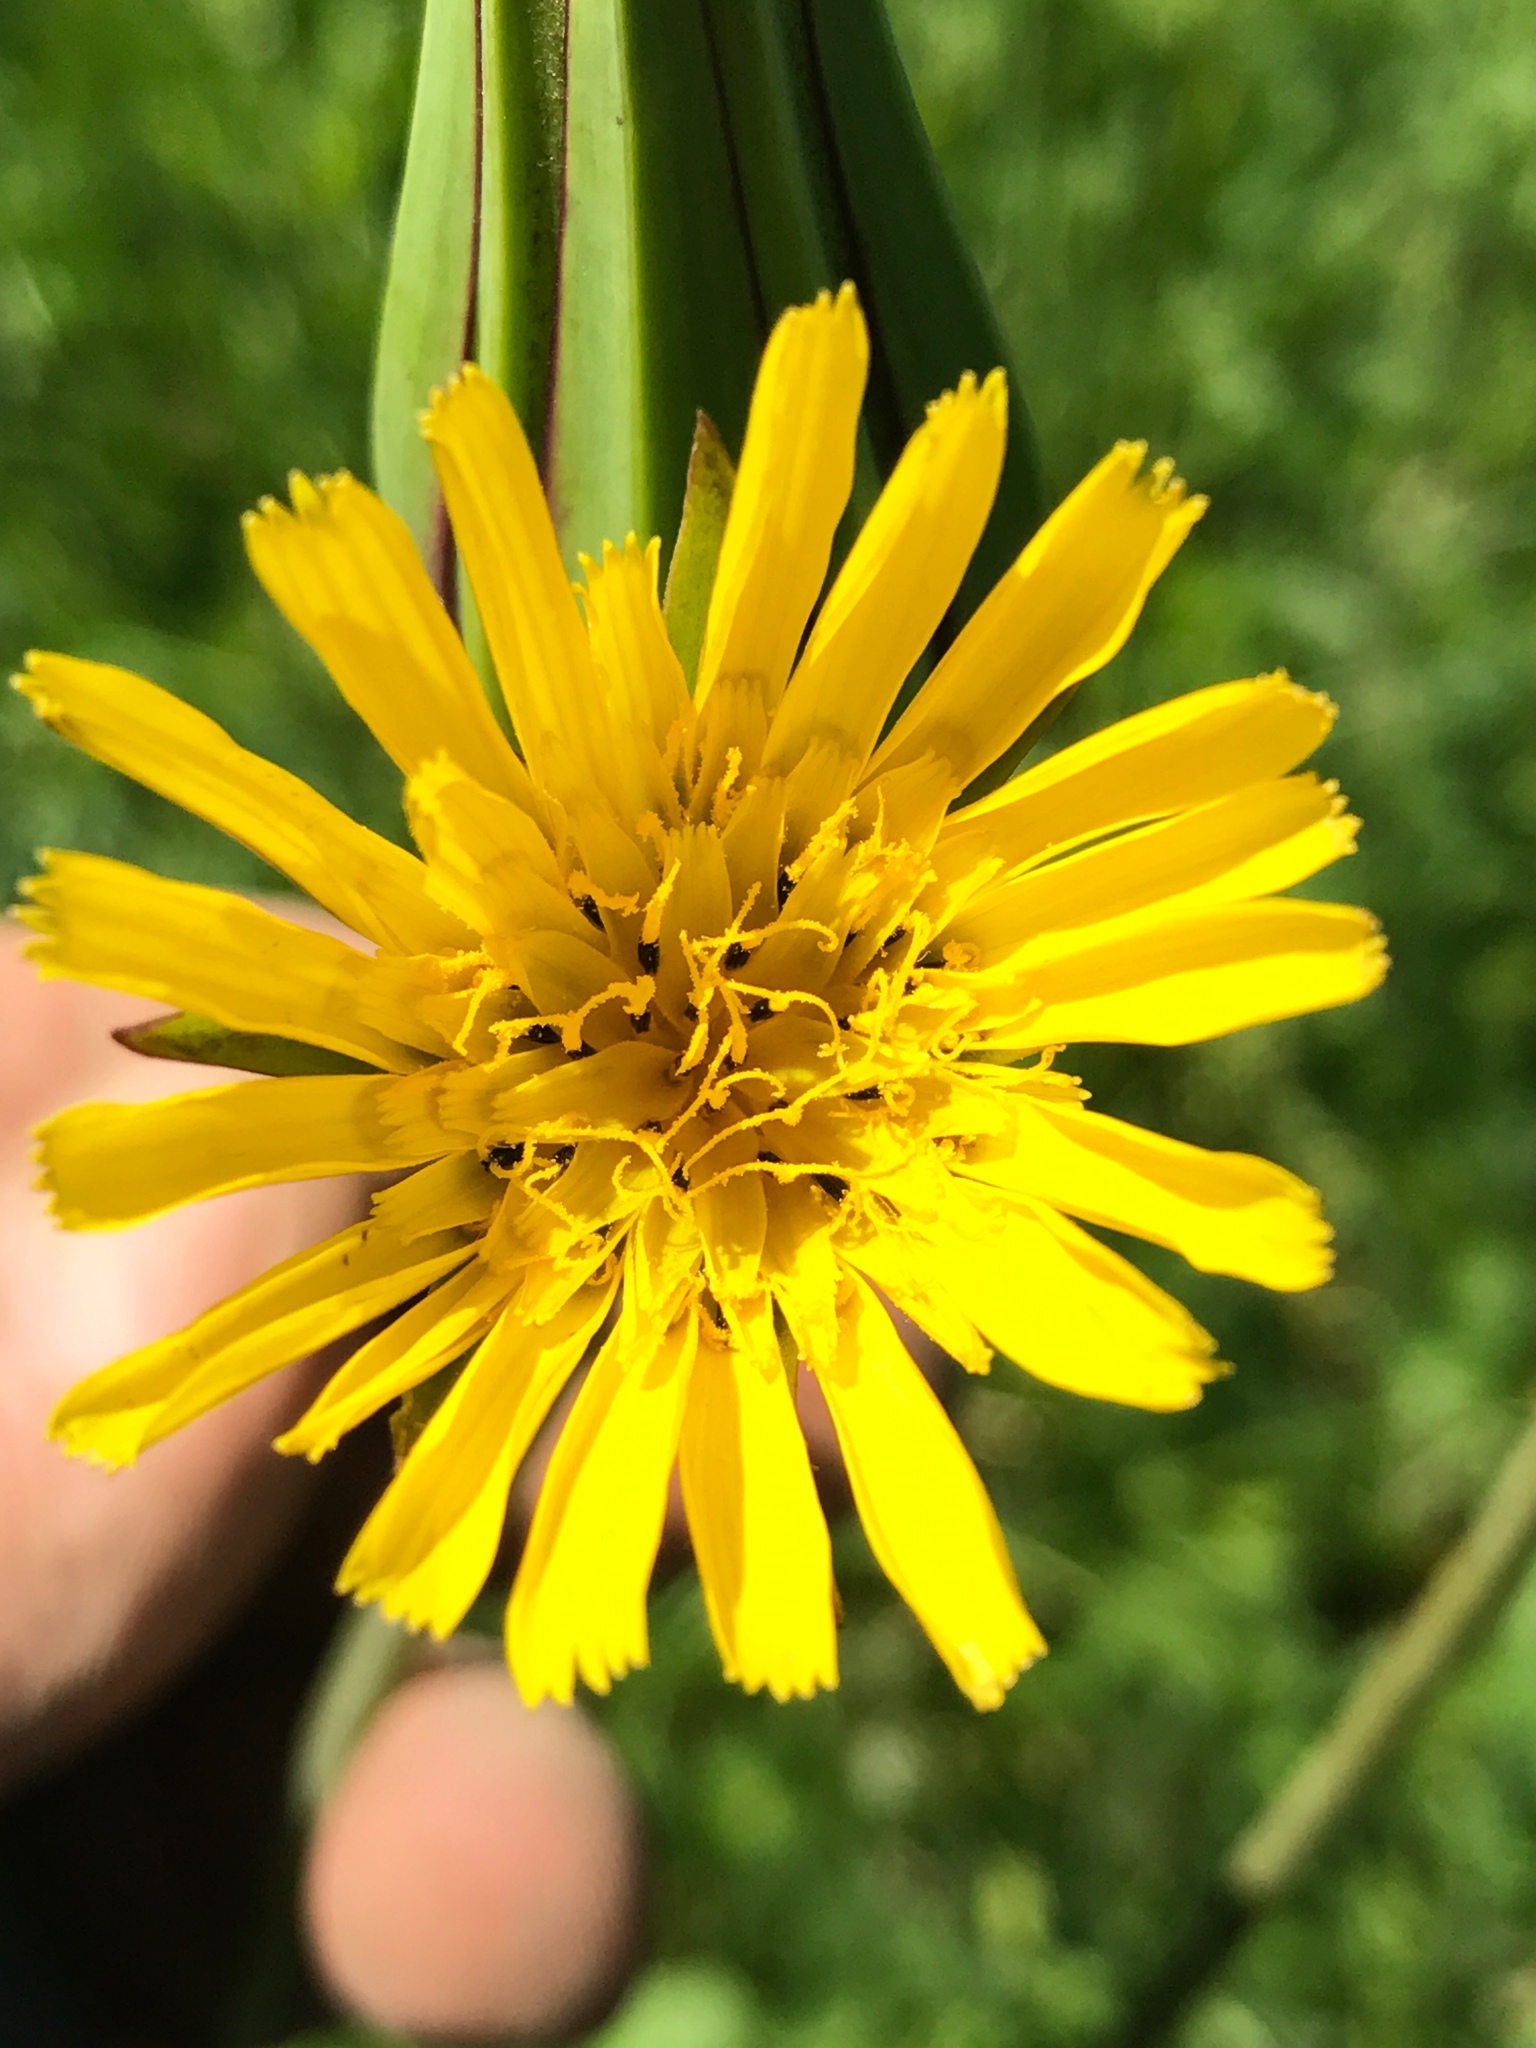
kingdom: Plantae
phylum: Tracheophyta
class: Magnoliopsida
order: Asterales
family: Asteraceae
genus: Tragopogon
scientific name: Tragopogon pratensis
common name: Goat's-beard
